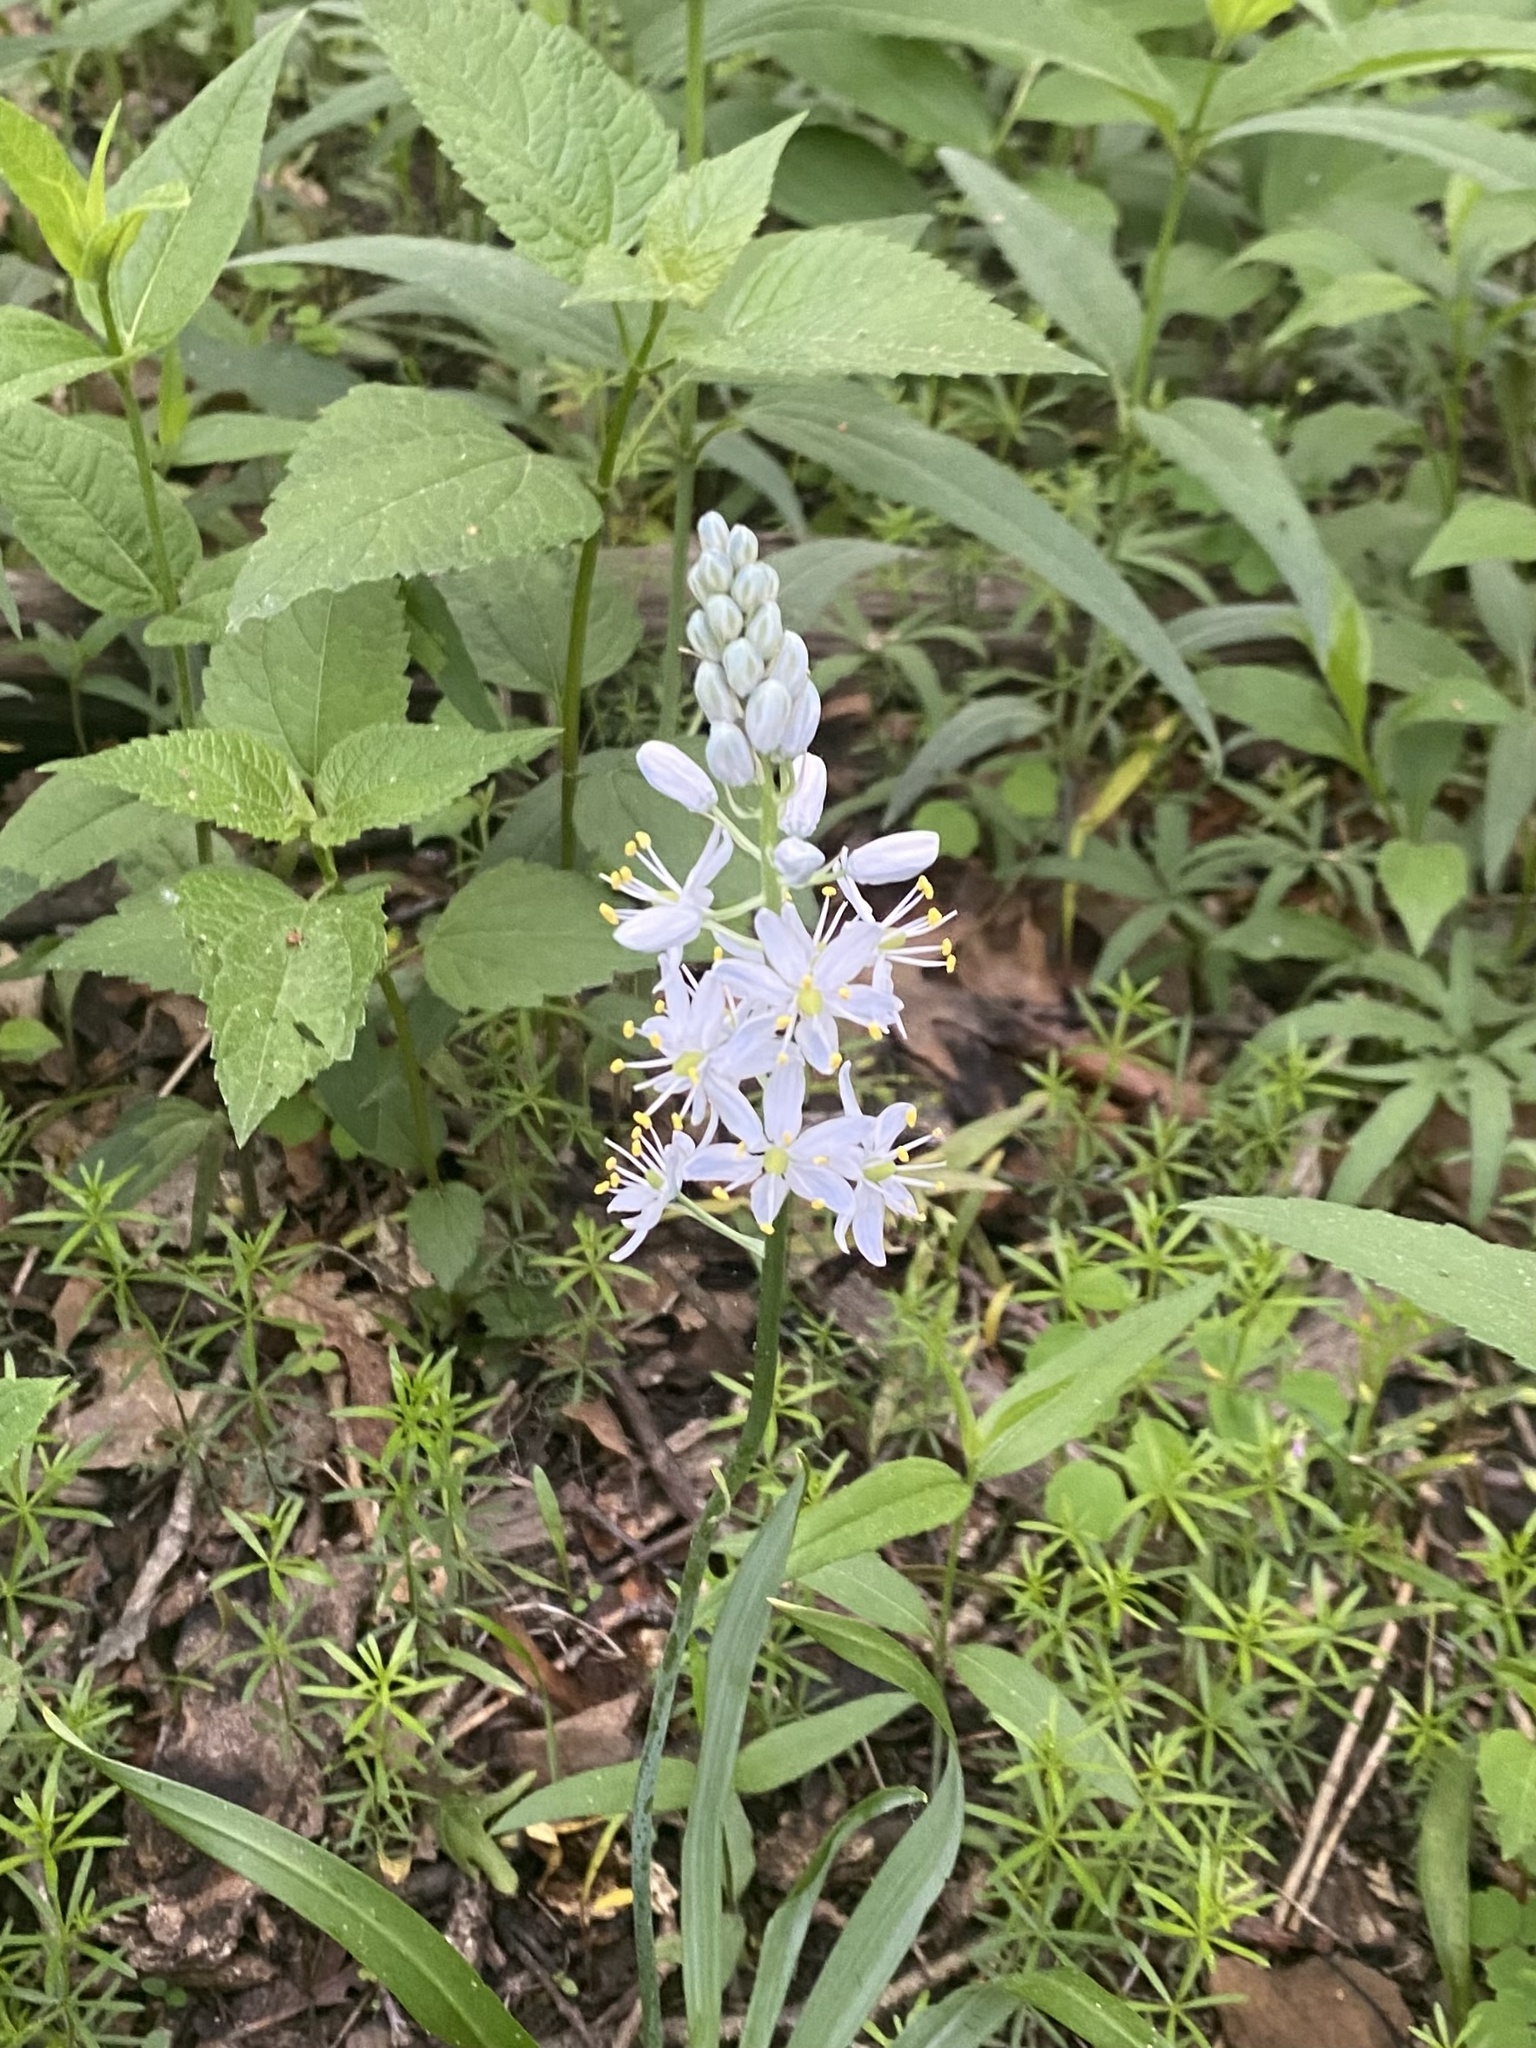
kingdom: Plantae
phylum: Tracheophyta
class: Liliopsida
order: Asparagales
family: Asparagaceae
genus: Camassia
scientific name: Camassia scilloides
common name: Wild hyacinth
